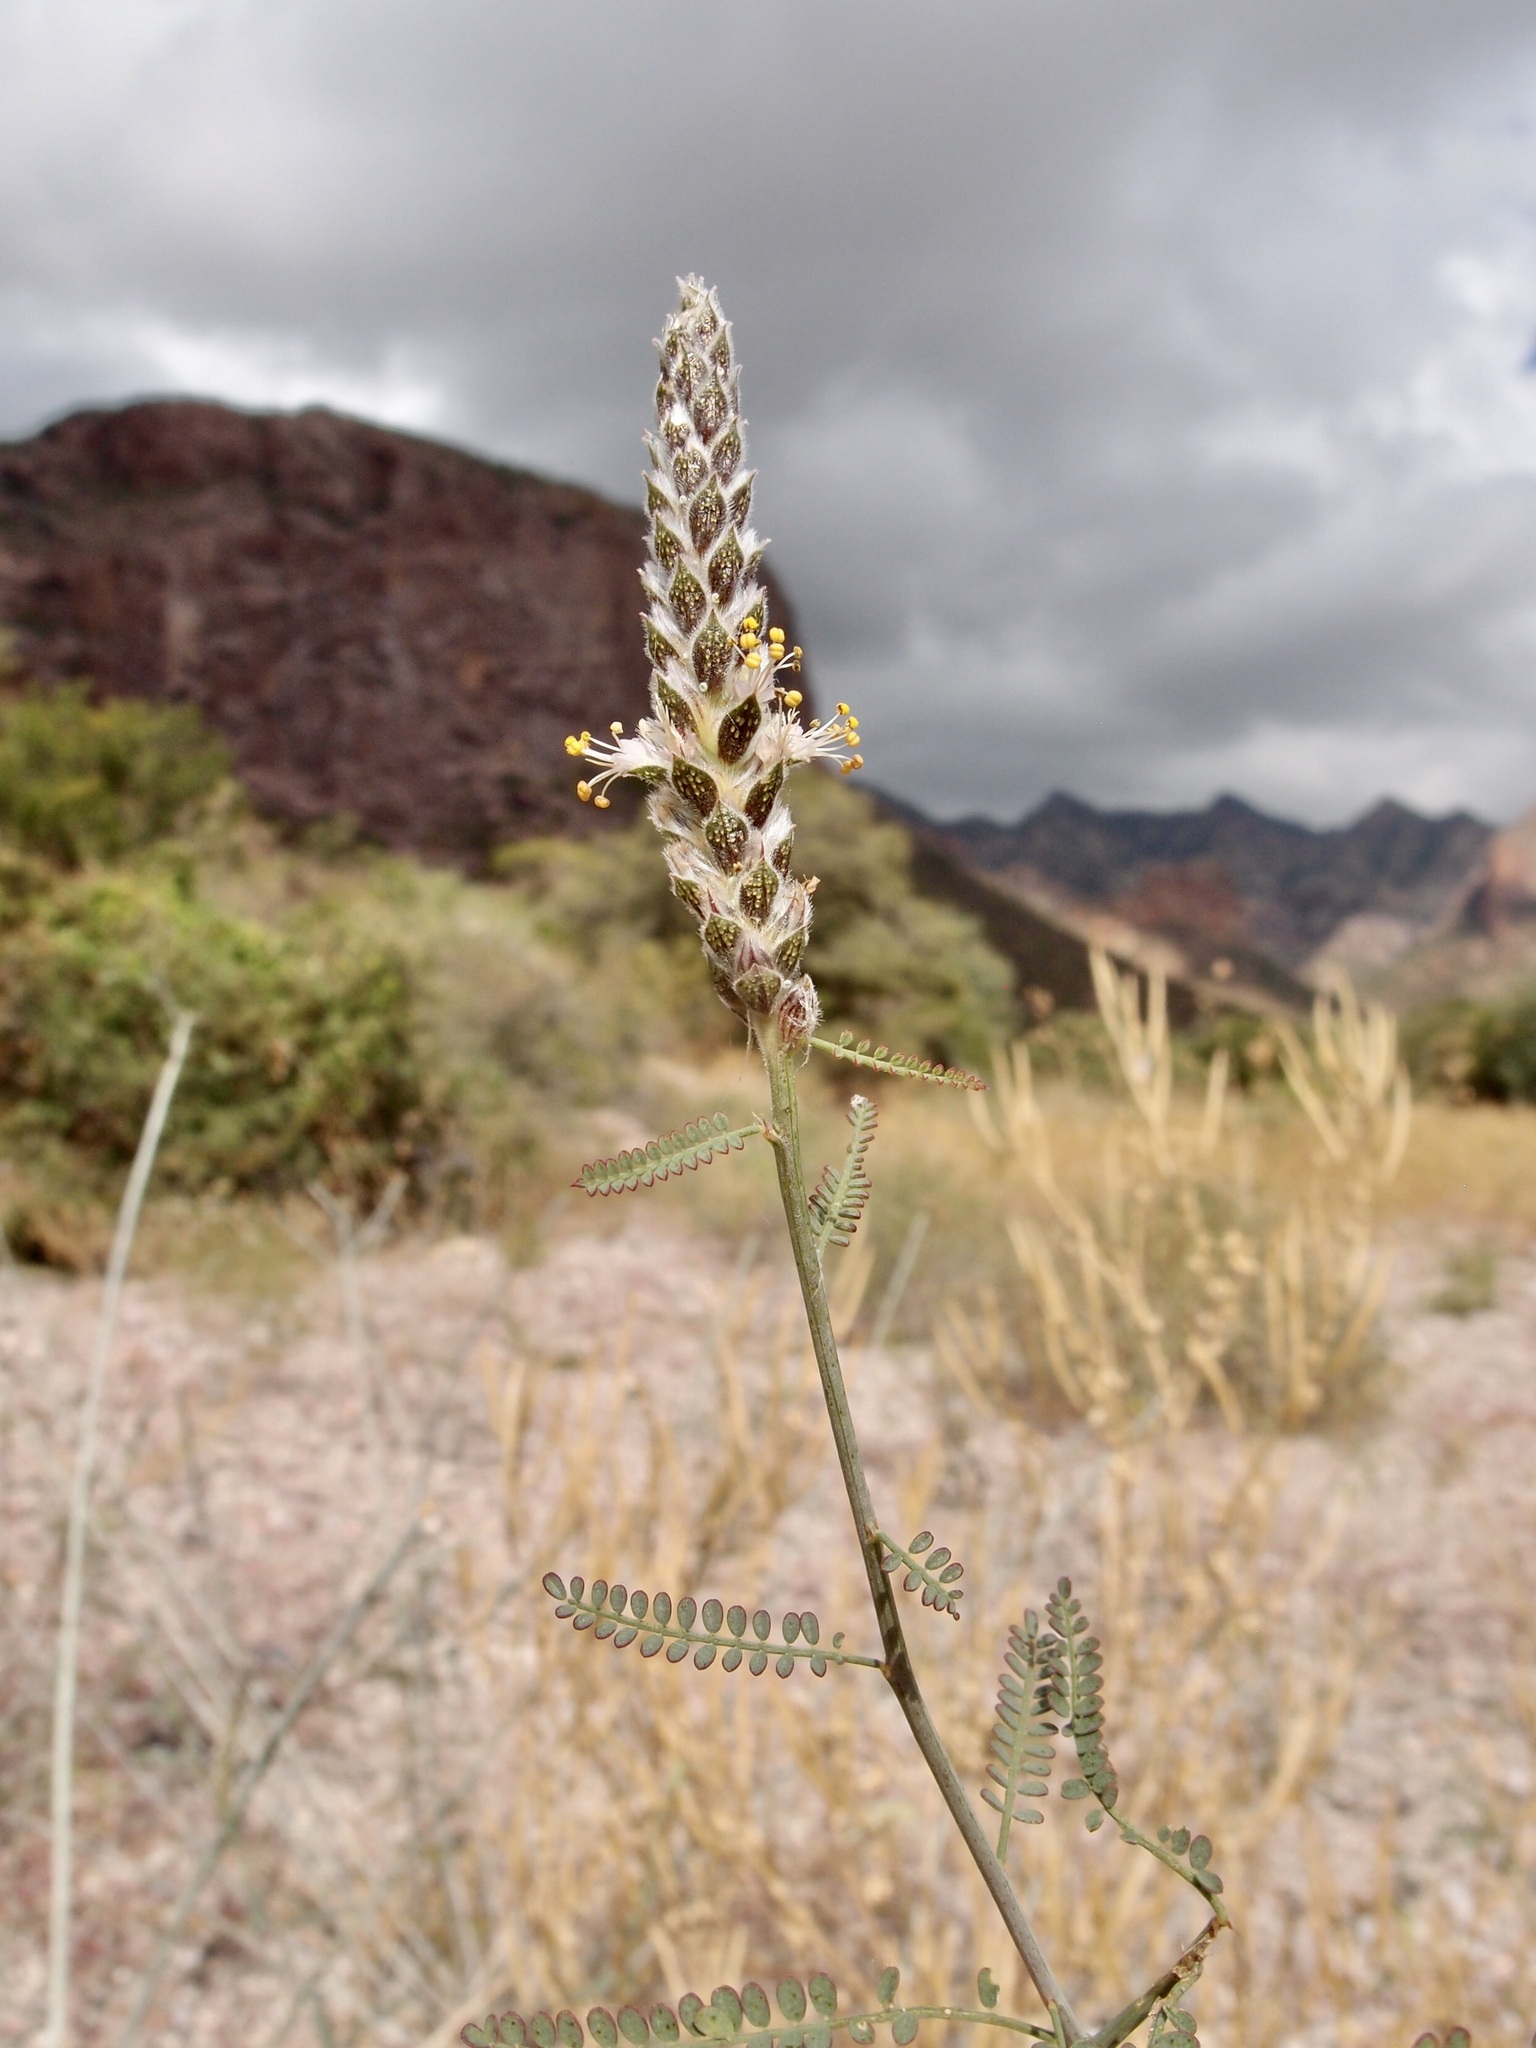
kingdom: Plantae
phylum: Tracheophyta
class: Magnoliopsida
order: Fabales
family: Fabaceae
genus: Dalea
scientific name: Dalea pringlei
